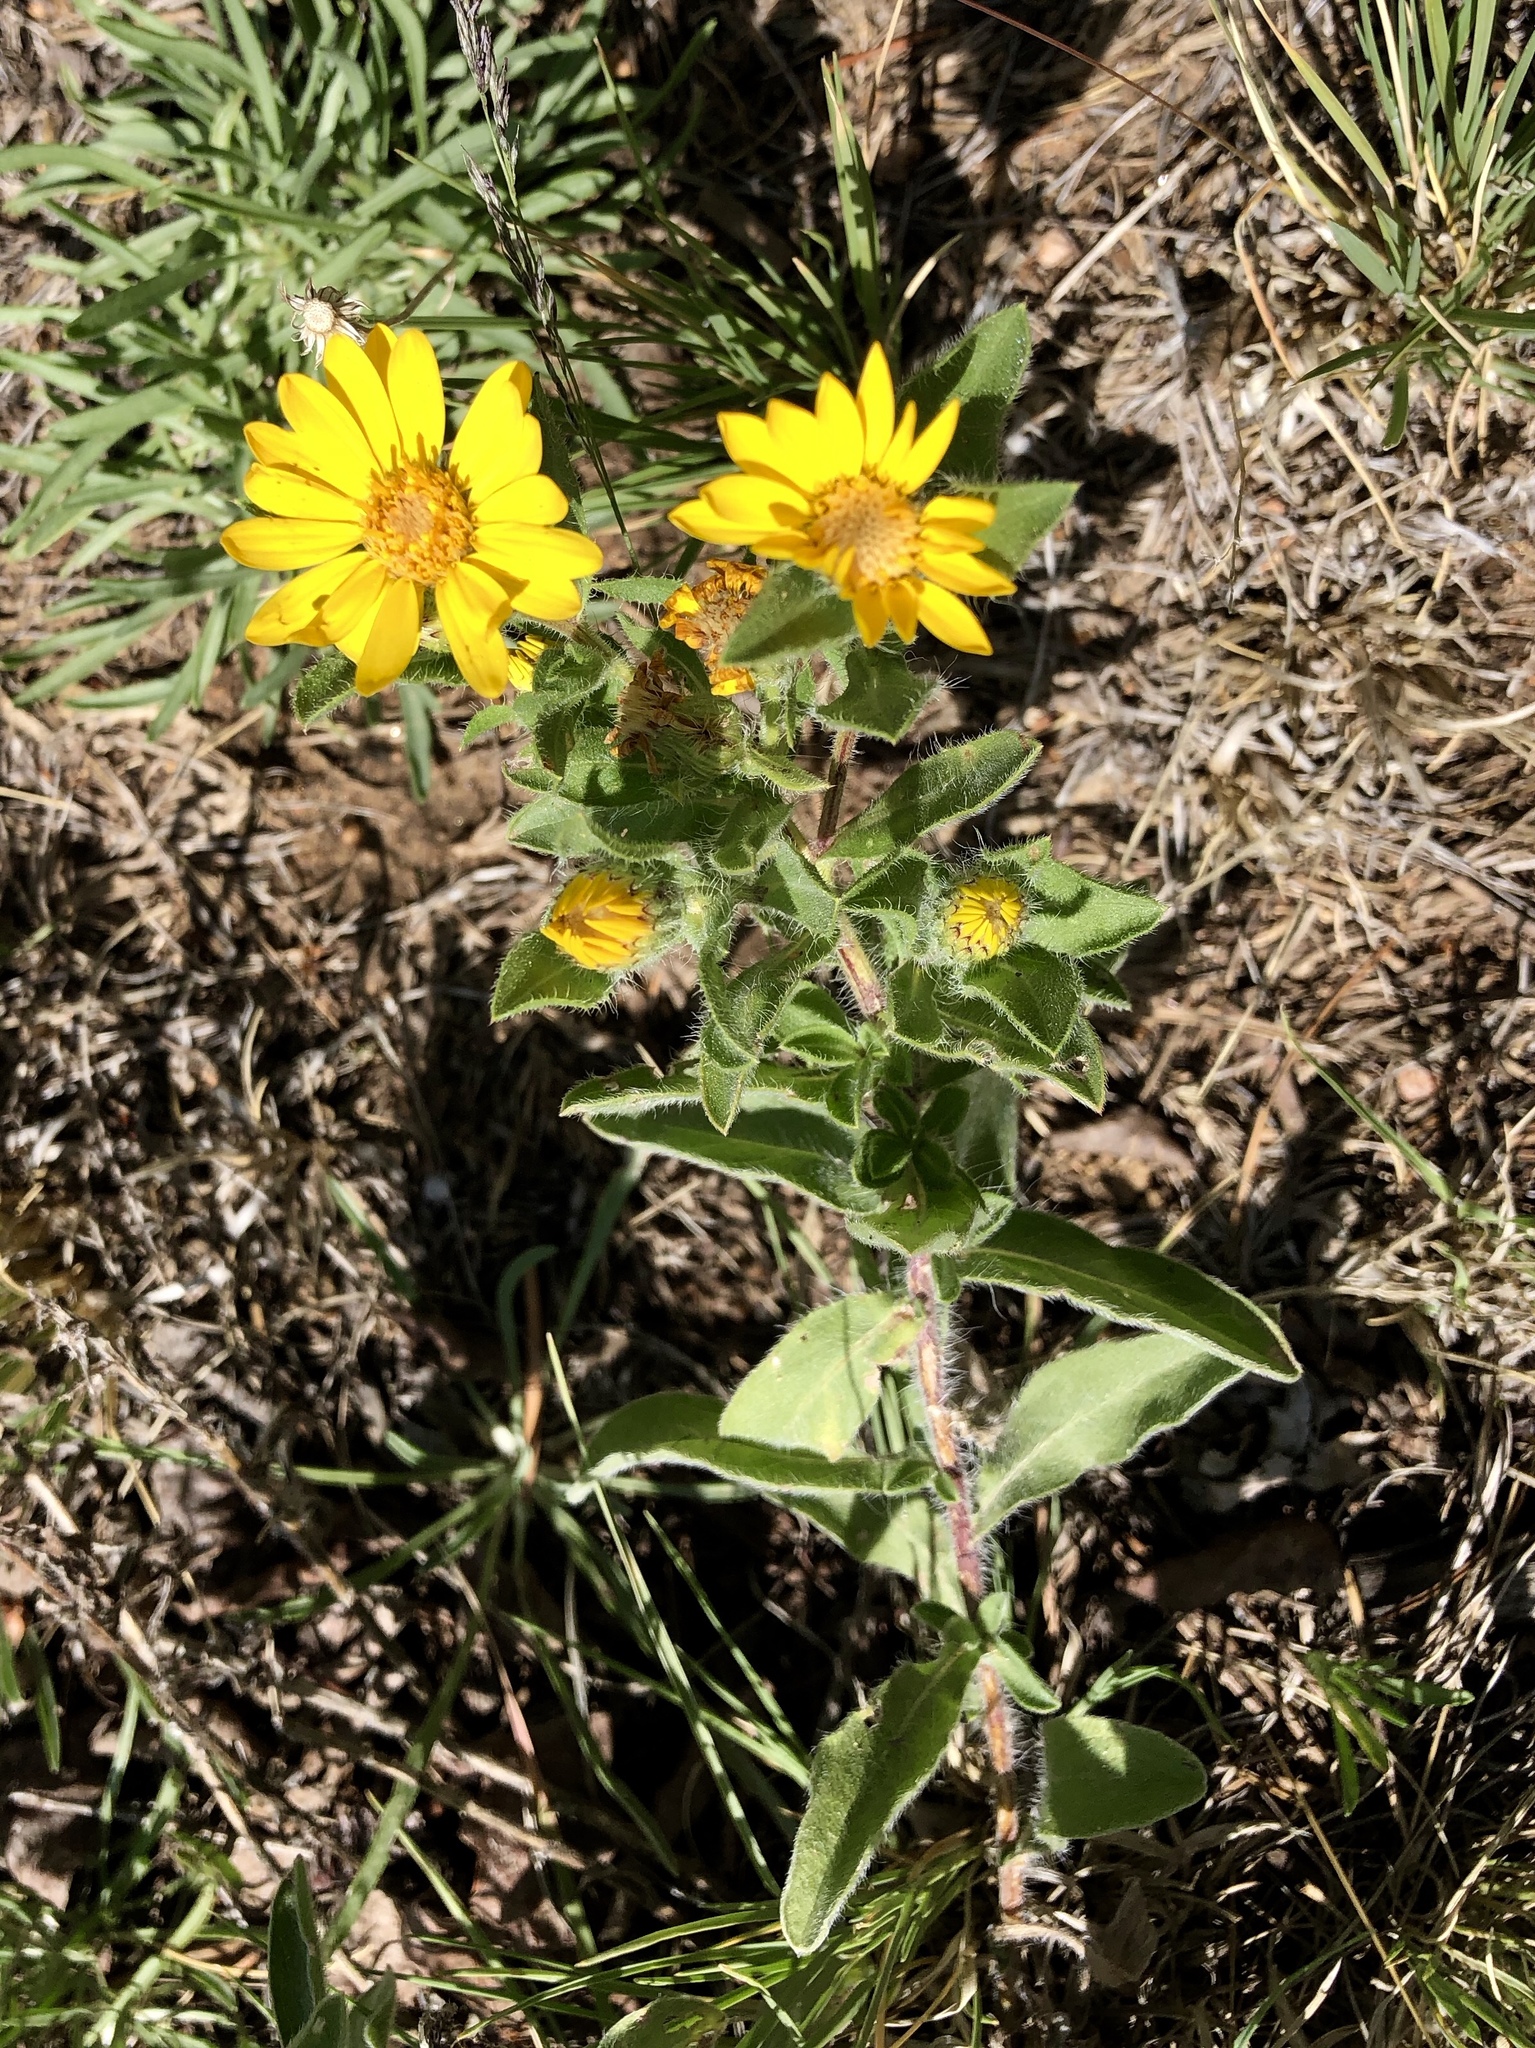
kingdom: Plantae
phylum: Tracheophyta
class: Magnoliopsida
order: Asterales
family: Asteraceae
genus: Heterotheca
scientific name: Heterotheca hirsuta
